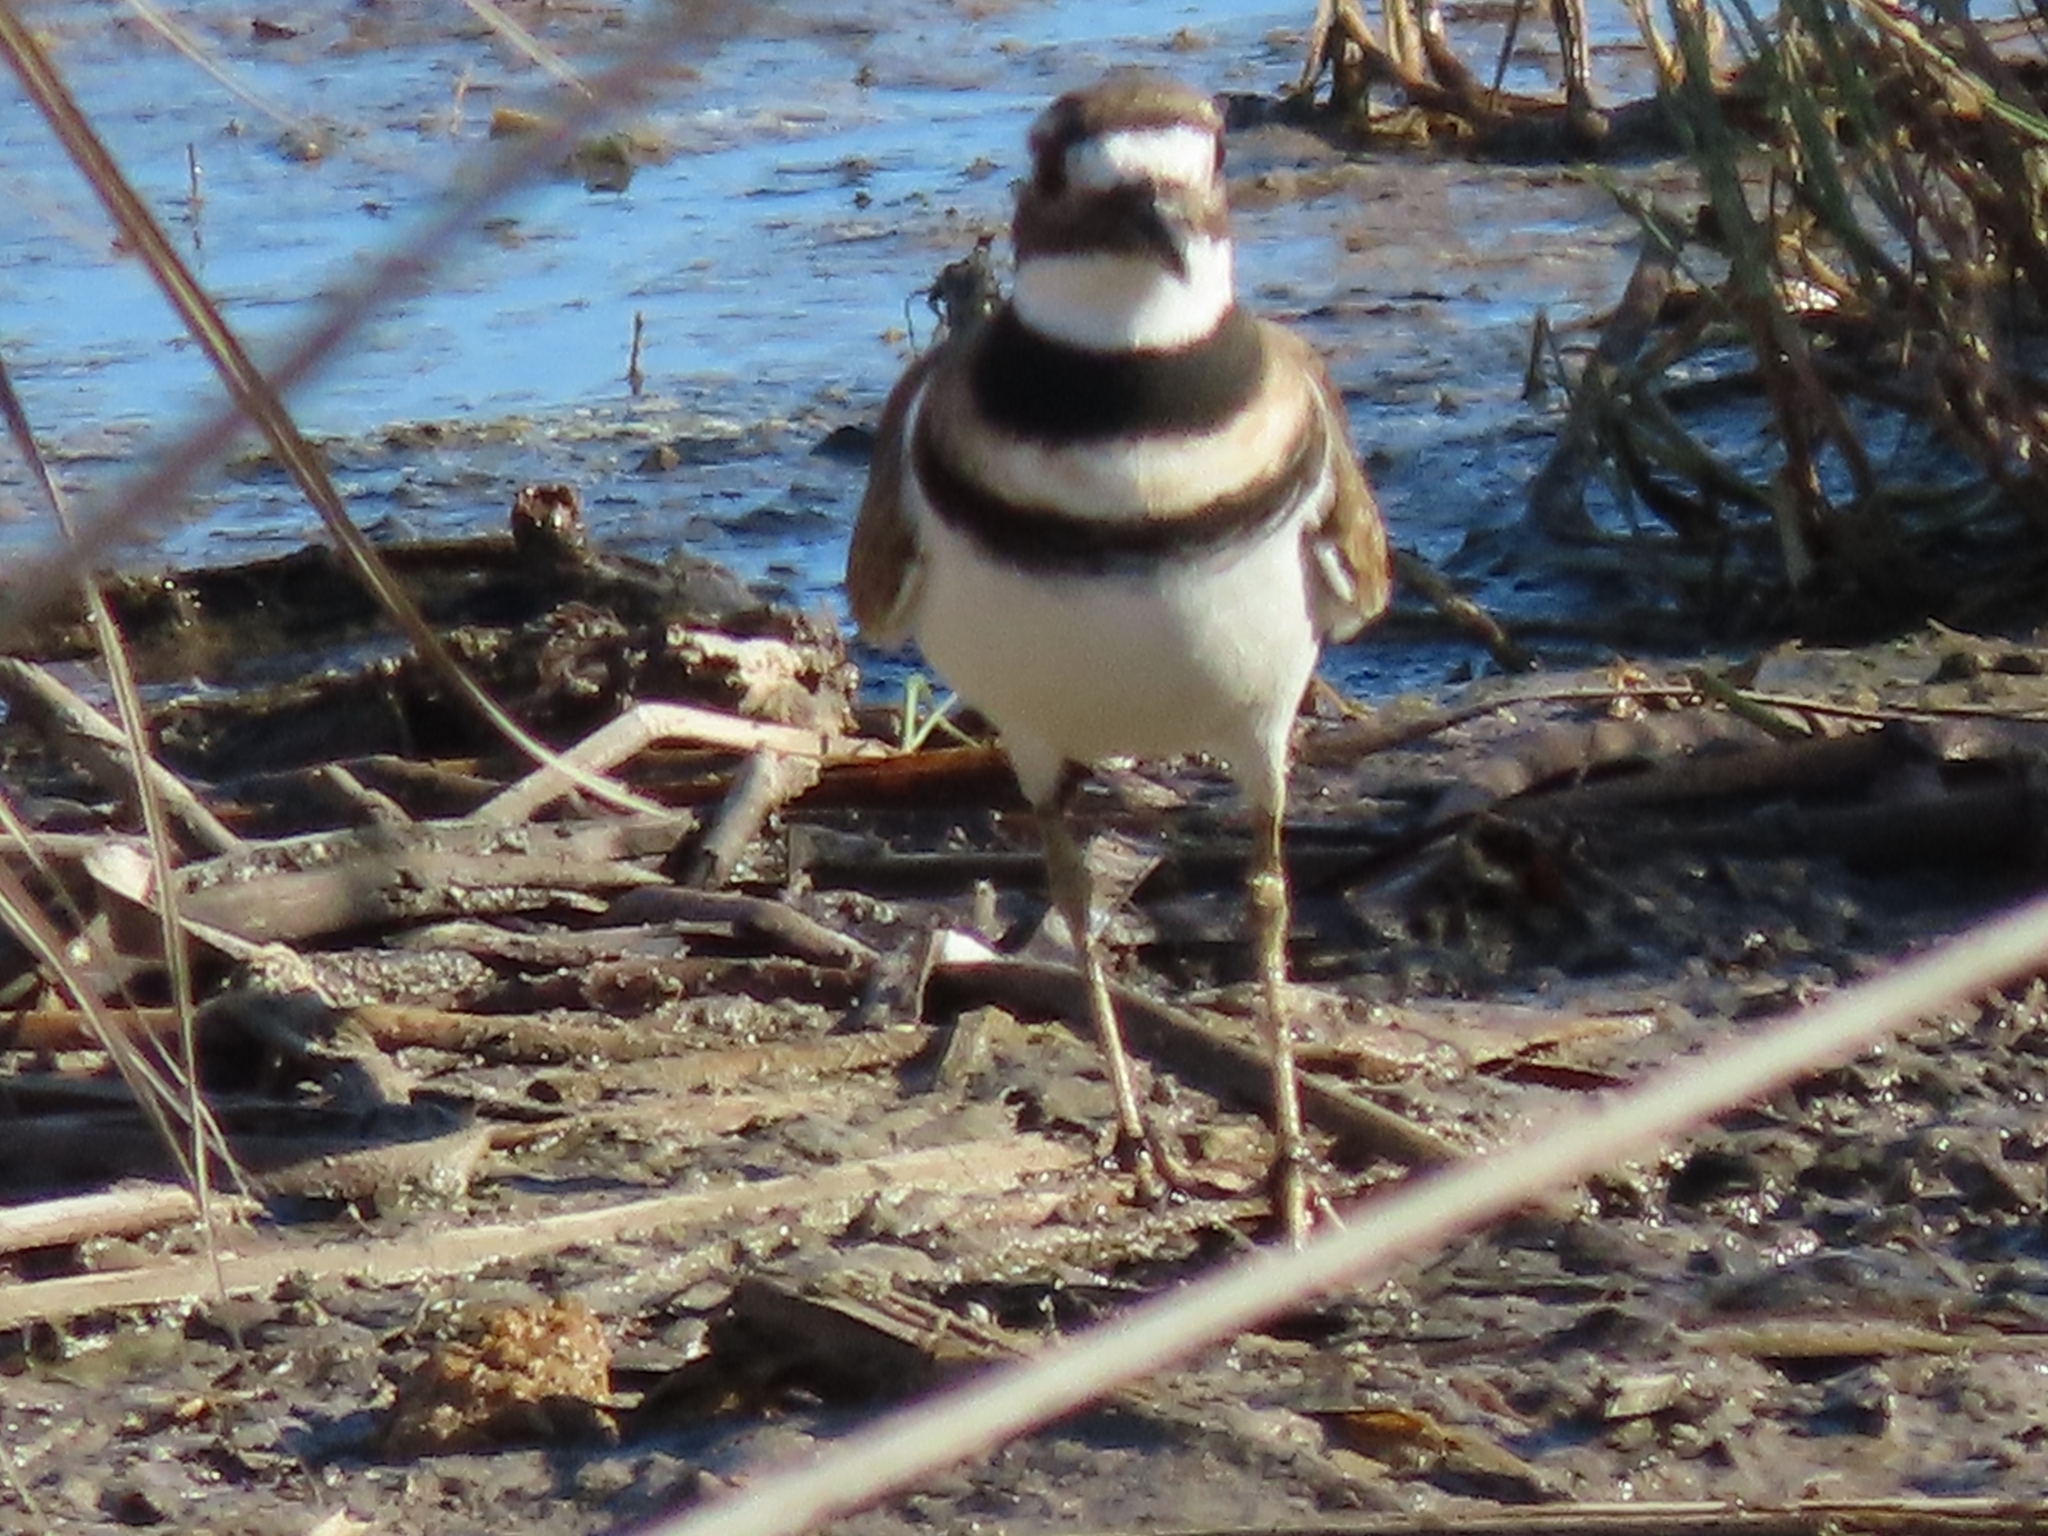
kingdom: Animalia
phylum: Chordata
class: Aves
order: Charadriiformes
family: Charadriidae
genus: Charadrius
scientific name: Charadrius vociferus
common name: Killdeer
